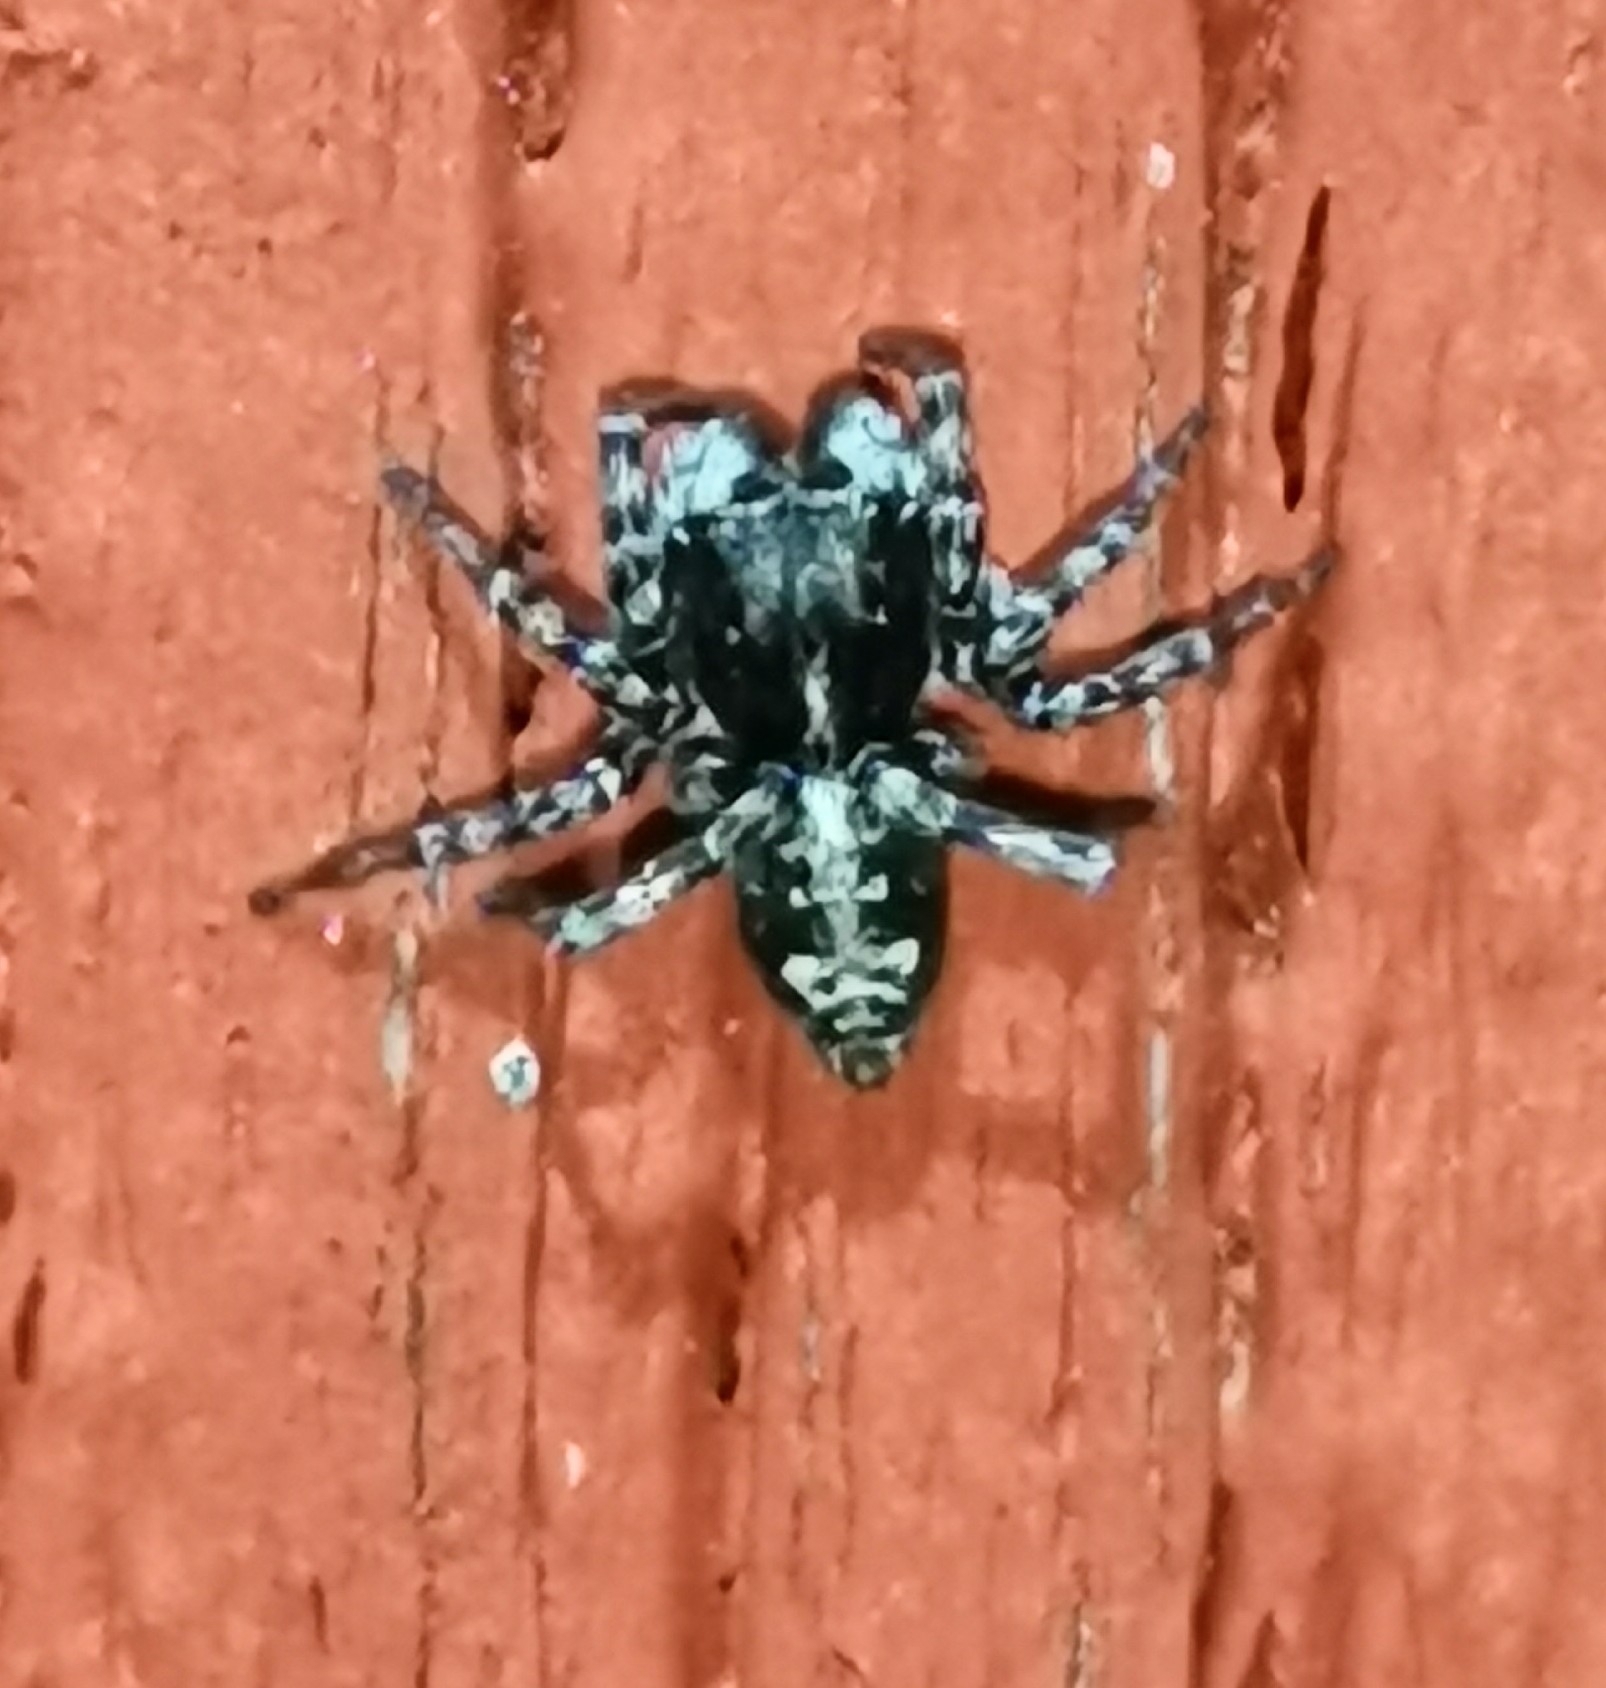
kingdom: Animalia
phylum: Arthropoda
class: Arachnida
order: Araneae
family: Salticidae
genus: Attulus
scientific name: Attulus terebratus
